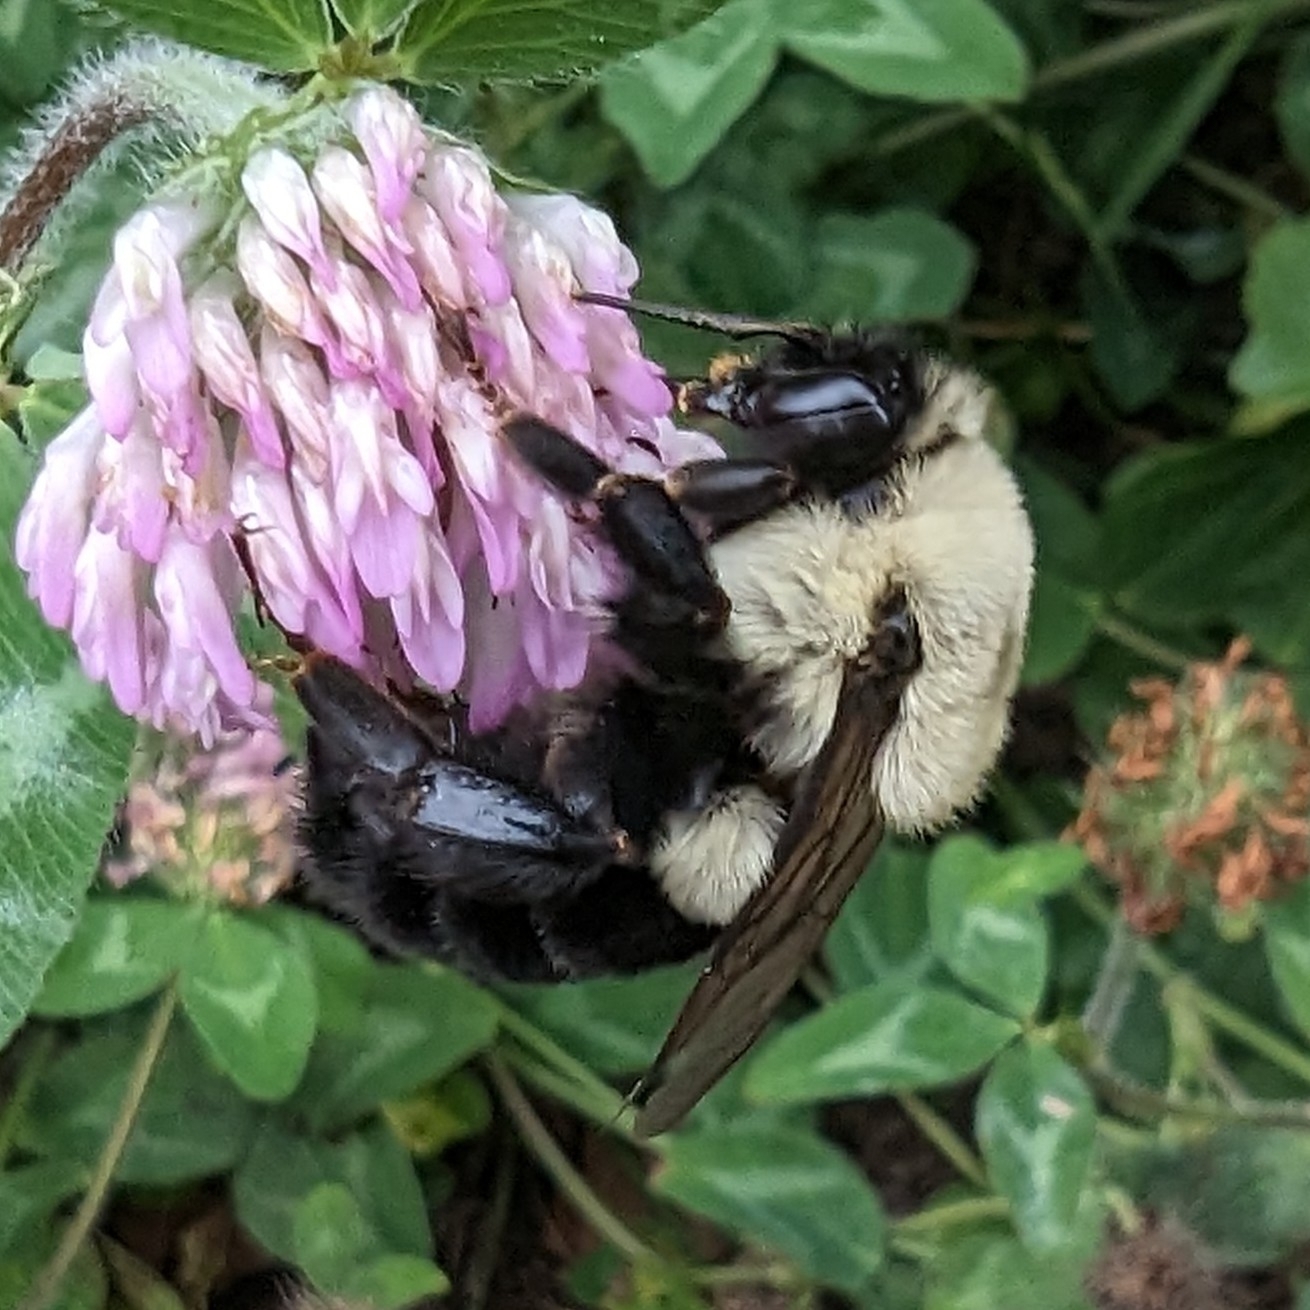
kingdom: Animalia
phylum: Arthropoda
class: Insecta
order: Hymenoptera
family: Apidae
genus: Bombus
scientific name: Bombus impatiens
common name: Common eastern bumble bee
